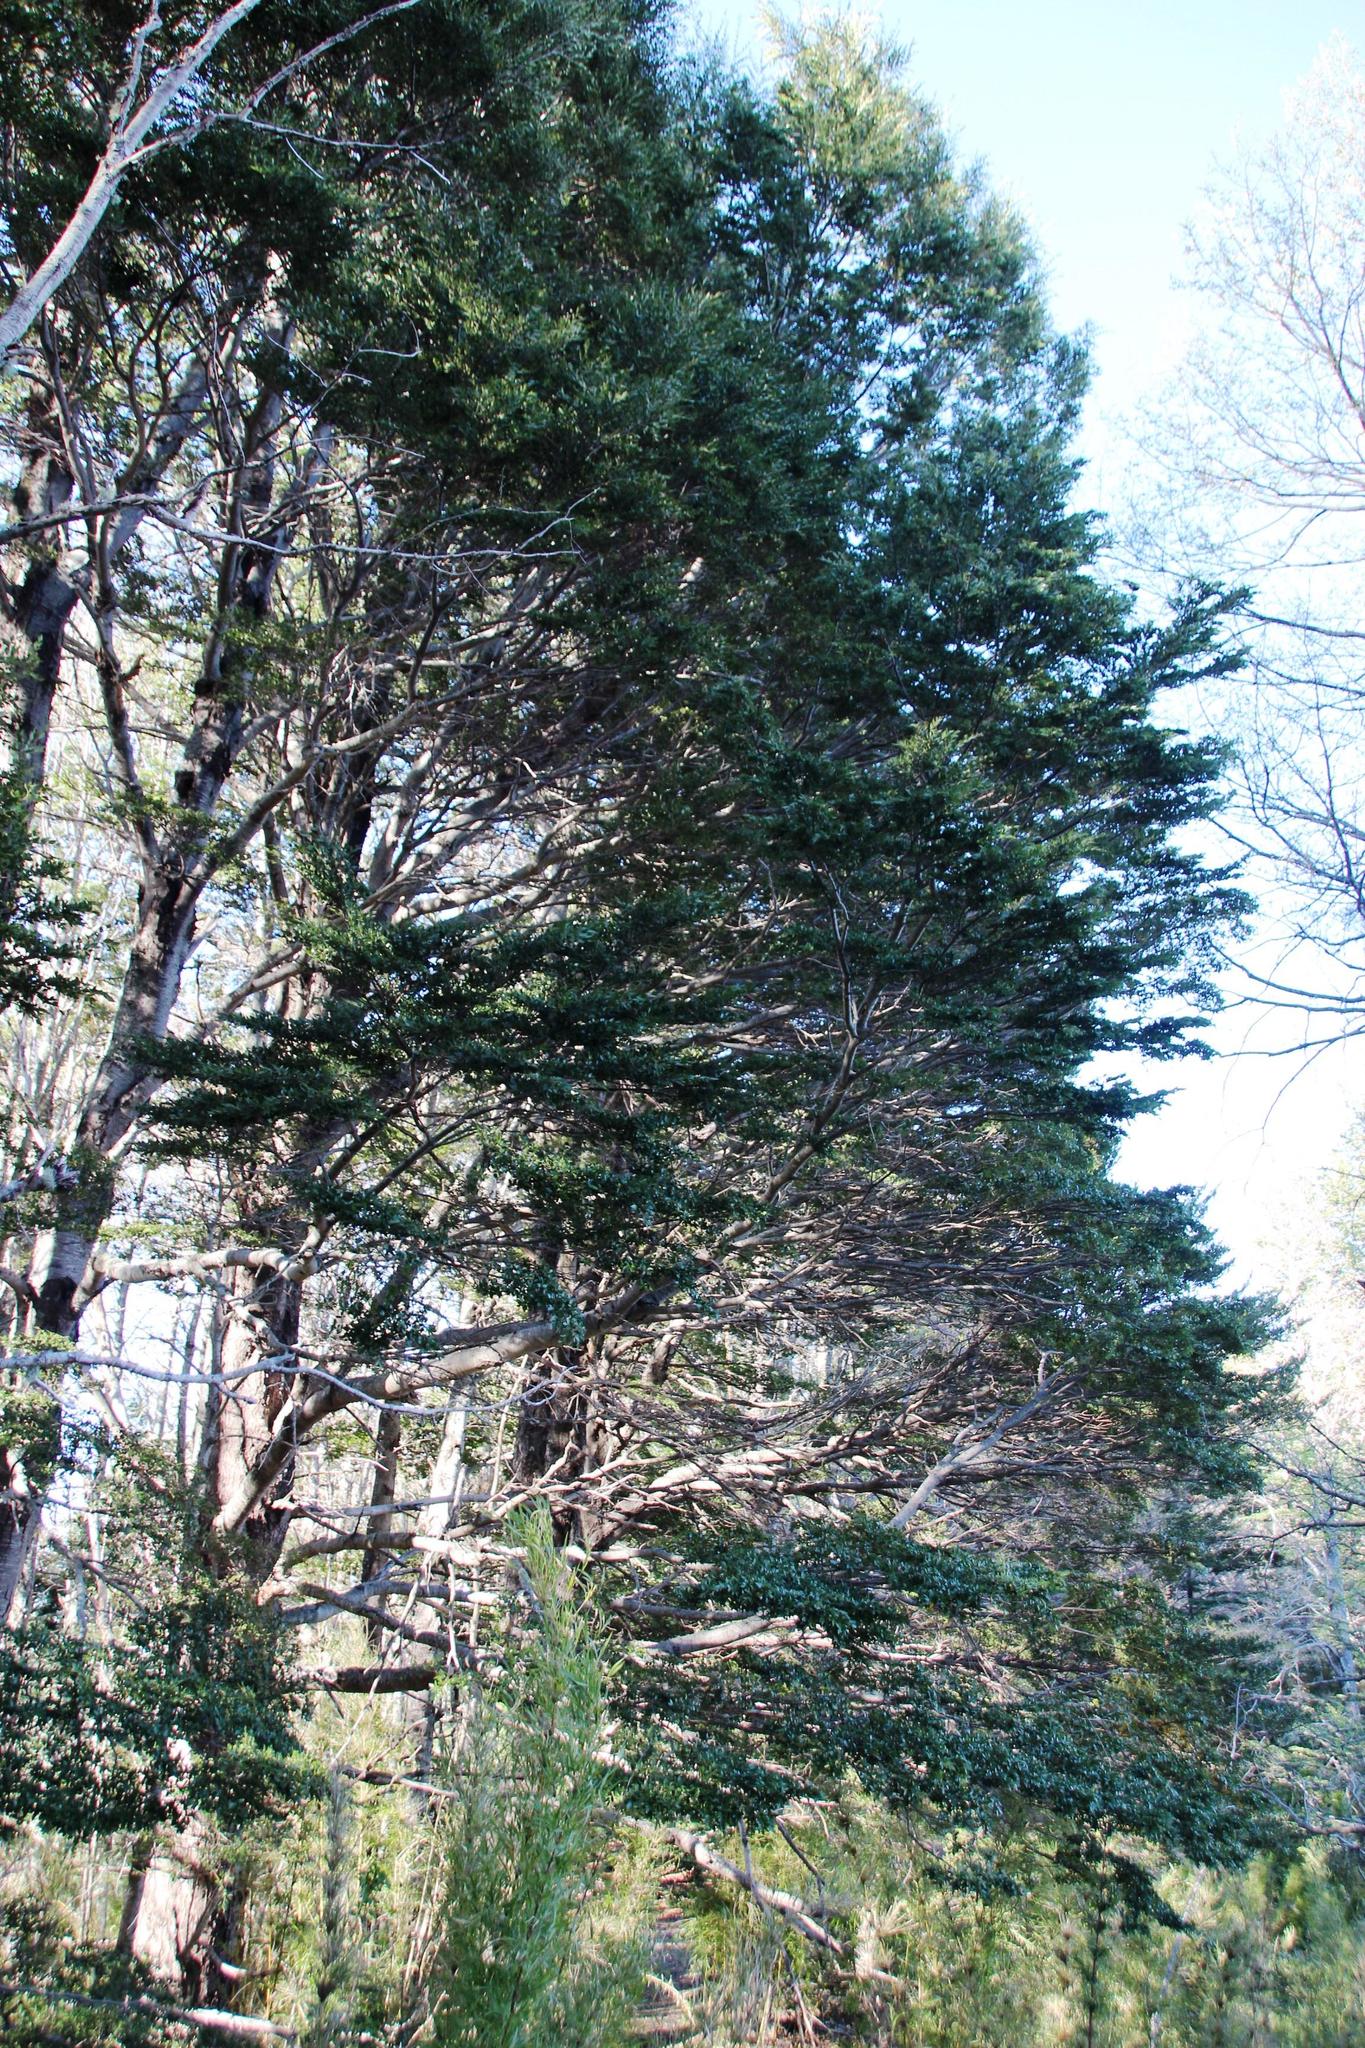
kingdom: Plantae
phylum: Tracheophyta
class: Magnoliopsida
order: Fagales
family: Nothofagaceae
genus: Nothofagus
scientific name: Nothofagus dombeyi
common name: Coigue
